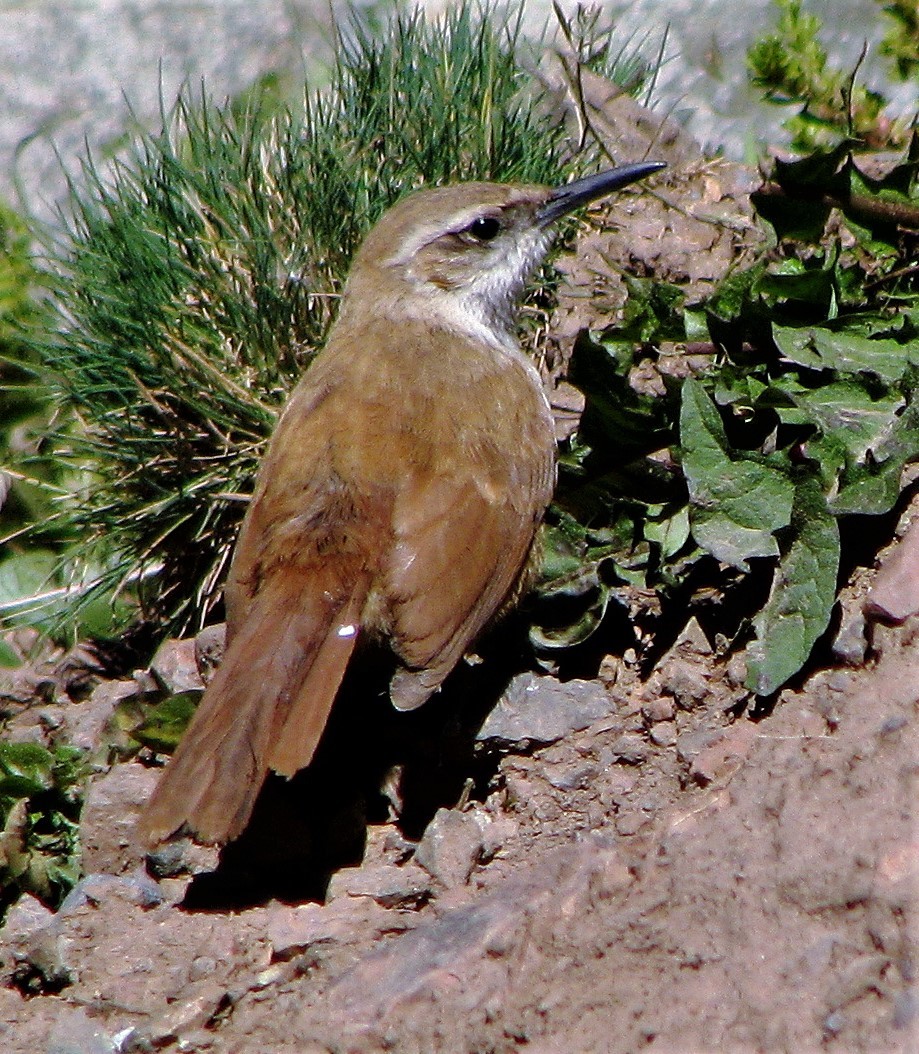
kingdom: Animalia
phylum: Chordata
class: Aves
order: Passeriformes
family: Furnariidae
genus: Upucerthia
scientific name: Upucerthia ruficaudus
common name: Straight-billed earthcreeper
